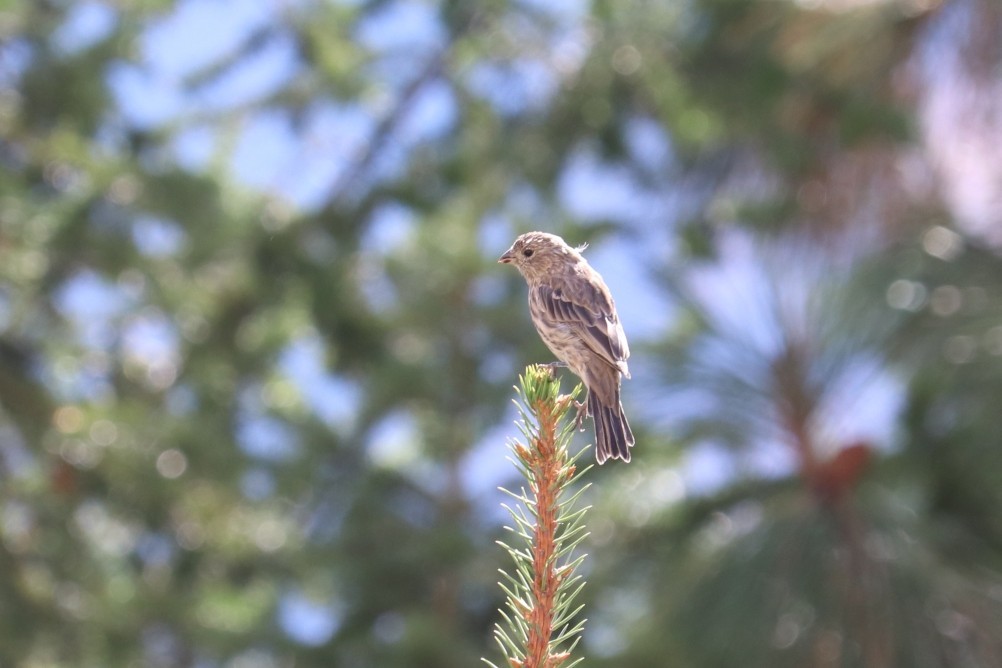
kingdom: Animalia
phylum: Chordata
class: Aves
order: Passeriformes
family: Fringillidae
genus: Haemorhous
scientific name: Haemorhous mexicanus
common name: House finch
